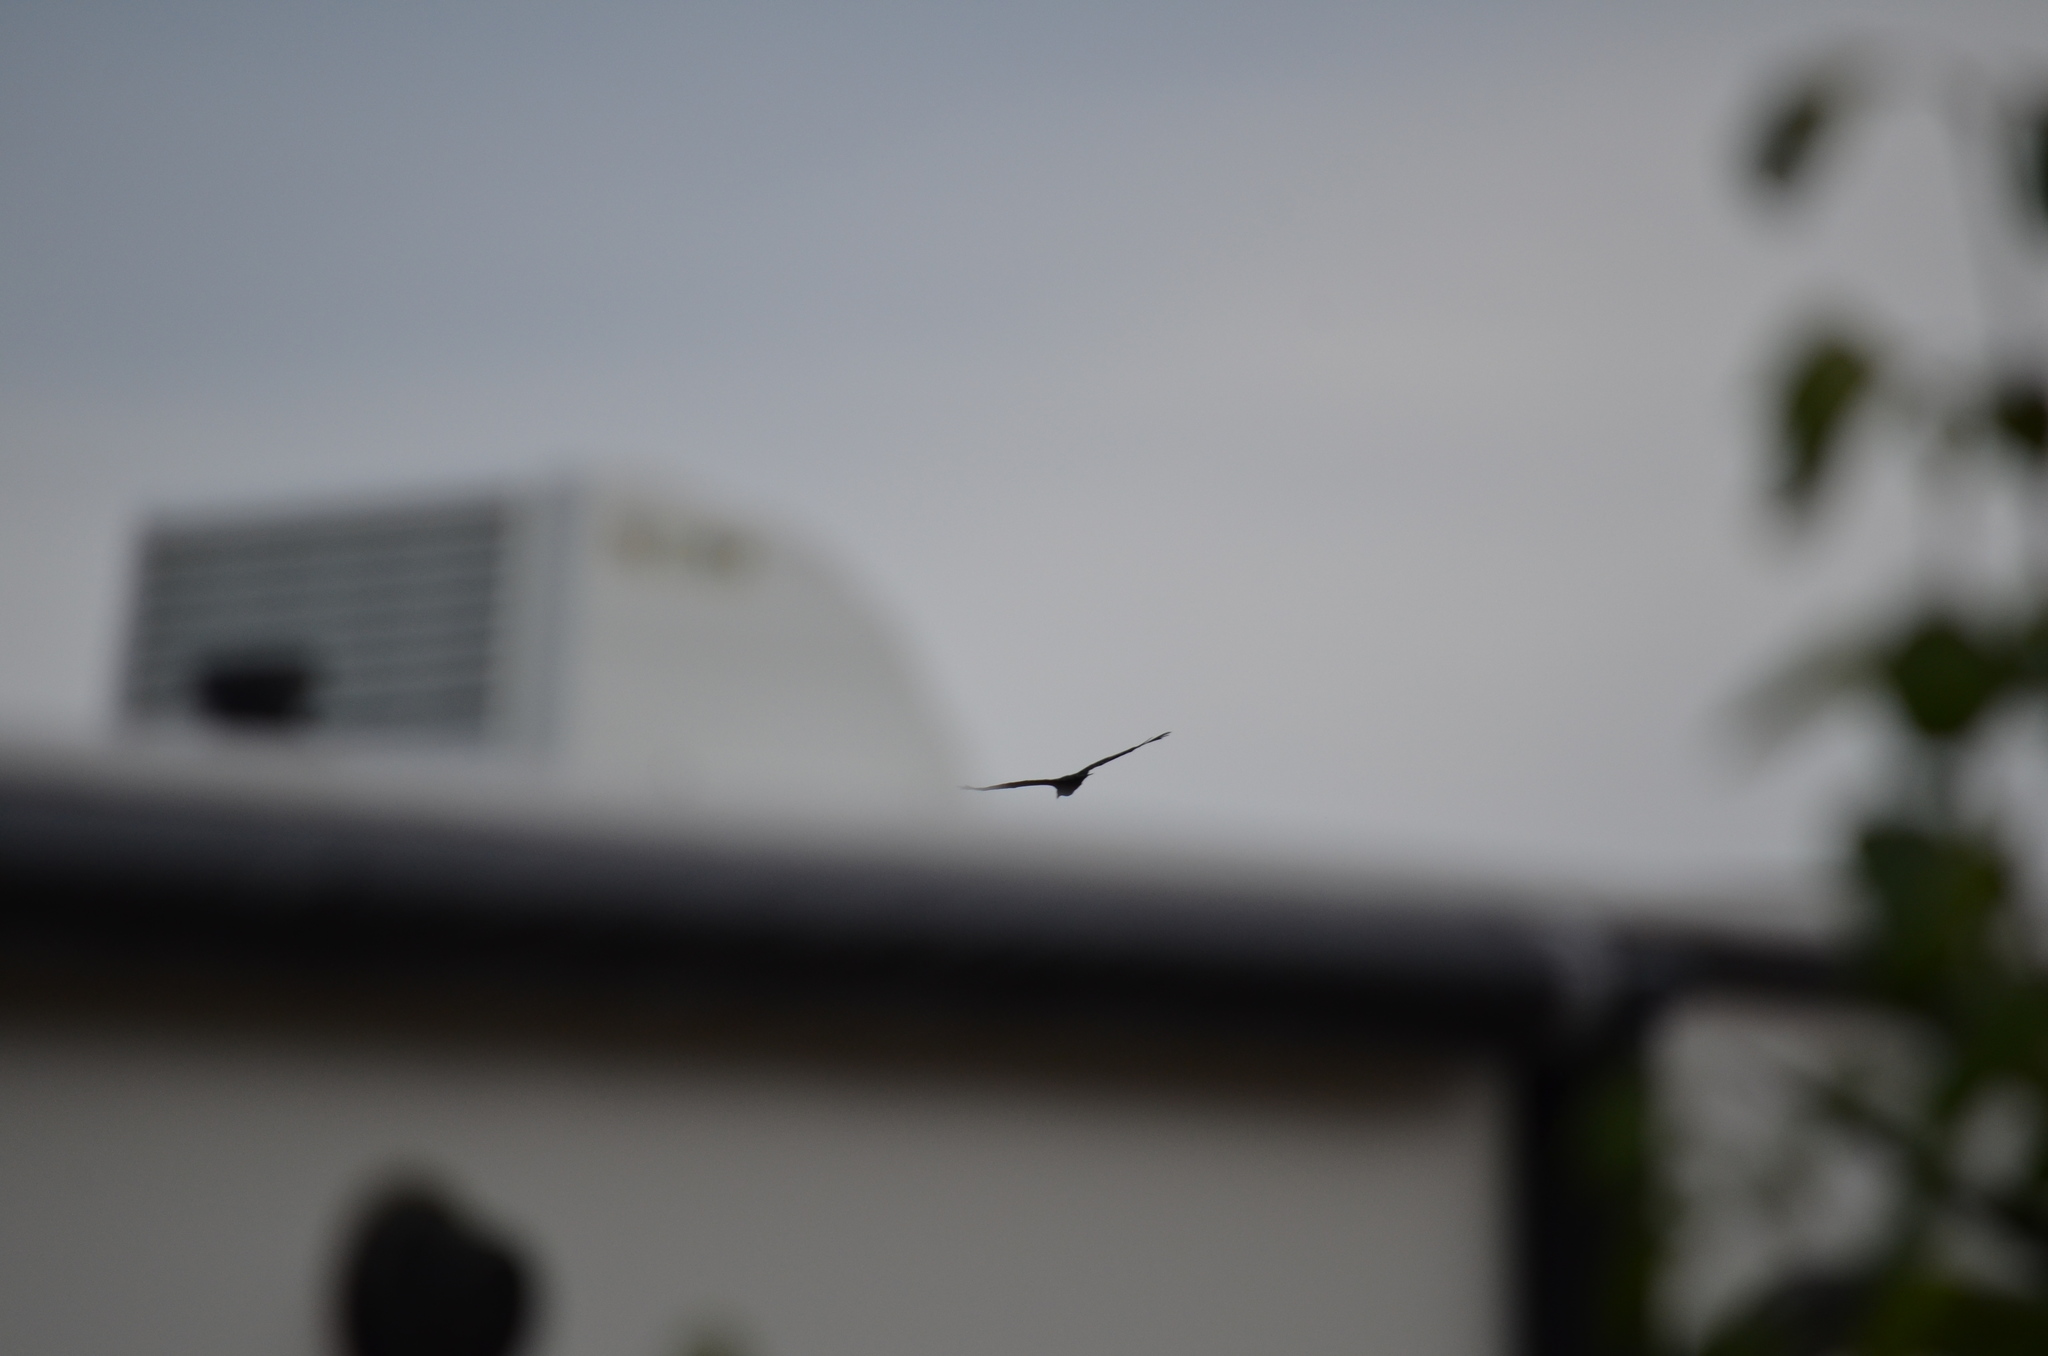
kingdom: Animalia
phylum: Chordata
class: Aves
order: Accipitriformes
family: Cathartidae
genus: Cathartes
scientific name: Cathartes aura
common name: Turkey vulture
